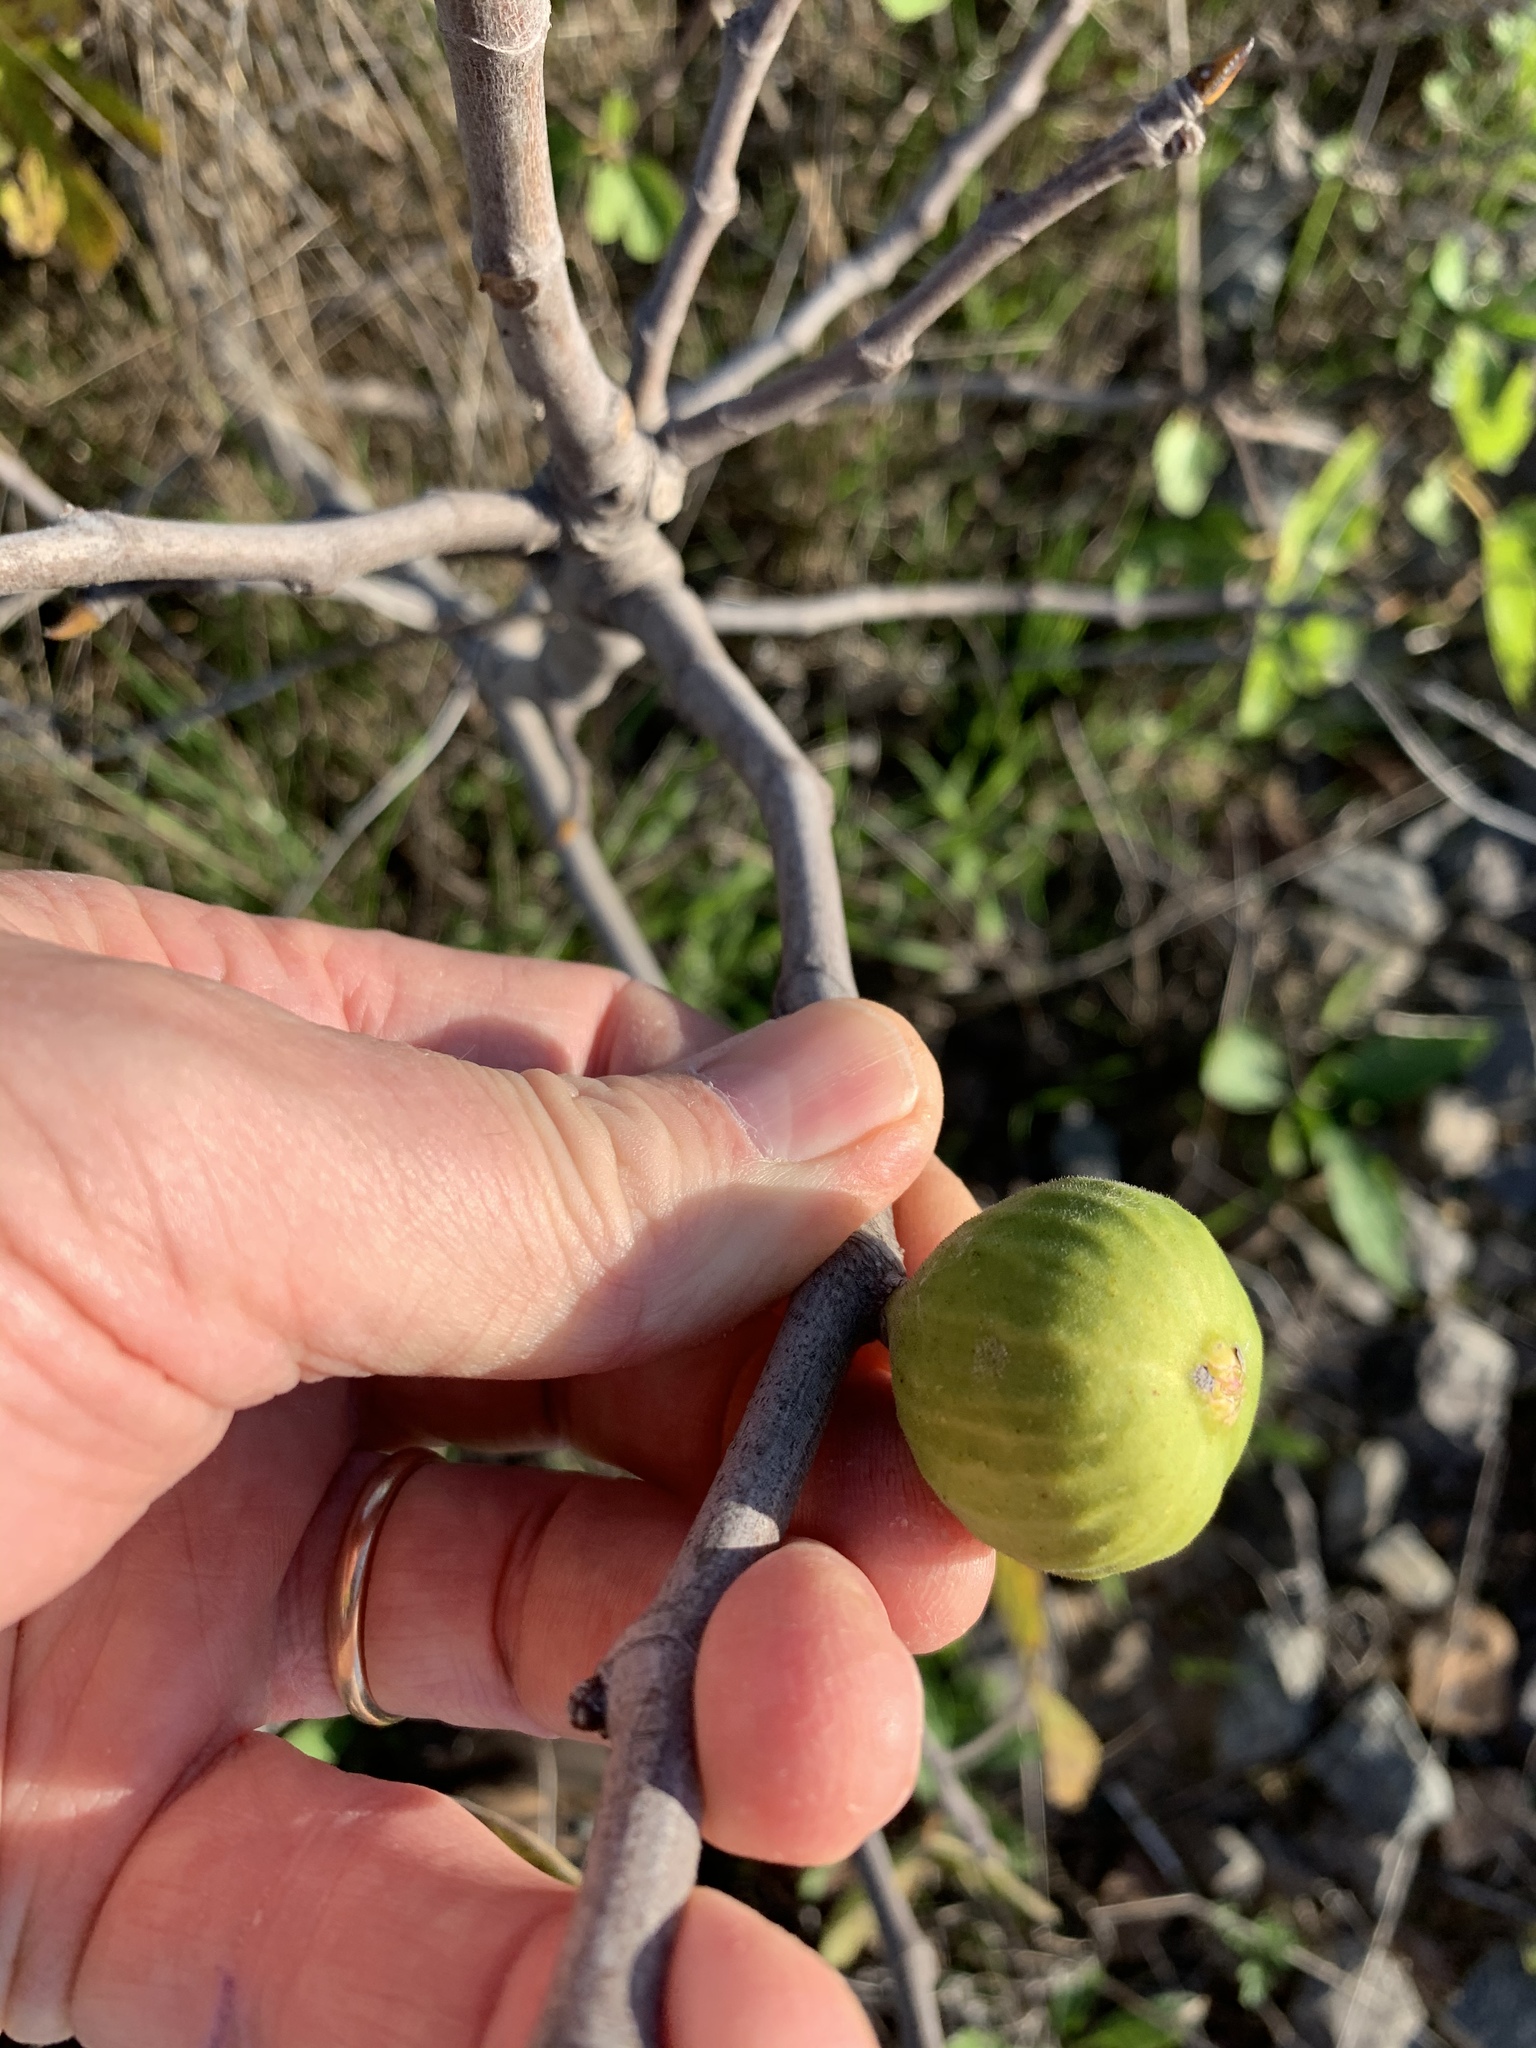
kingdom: Plantae
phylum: Tracheophyta
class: Magnoliopsida
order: Rosales
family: Moraceae
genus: Ficus
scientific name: Ficus carica
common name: Fig
